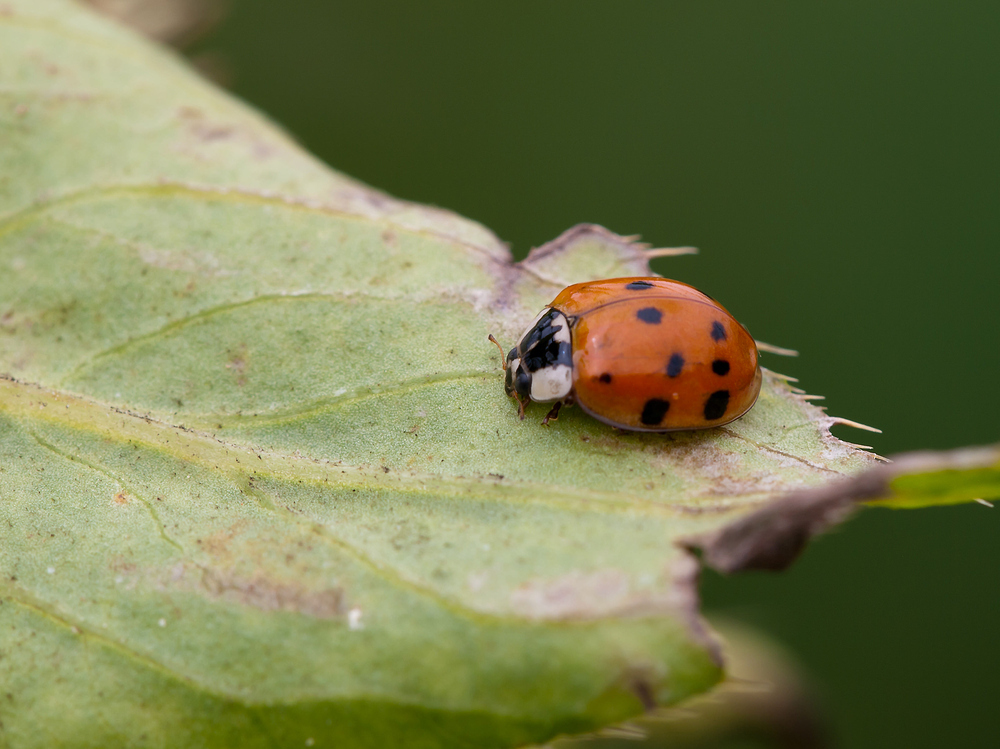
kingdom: Animalia
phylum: Arthropoda
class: Insecta
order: Coleoptera
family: Coccinellidae
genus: Harmonia
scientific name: Harmonia axyridis
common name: Harlequin ladybird
